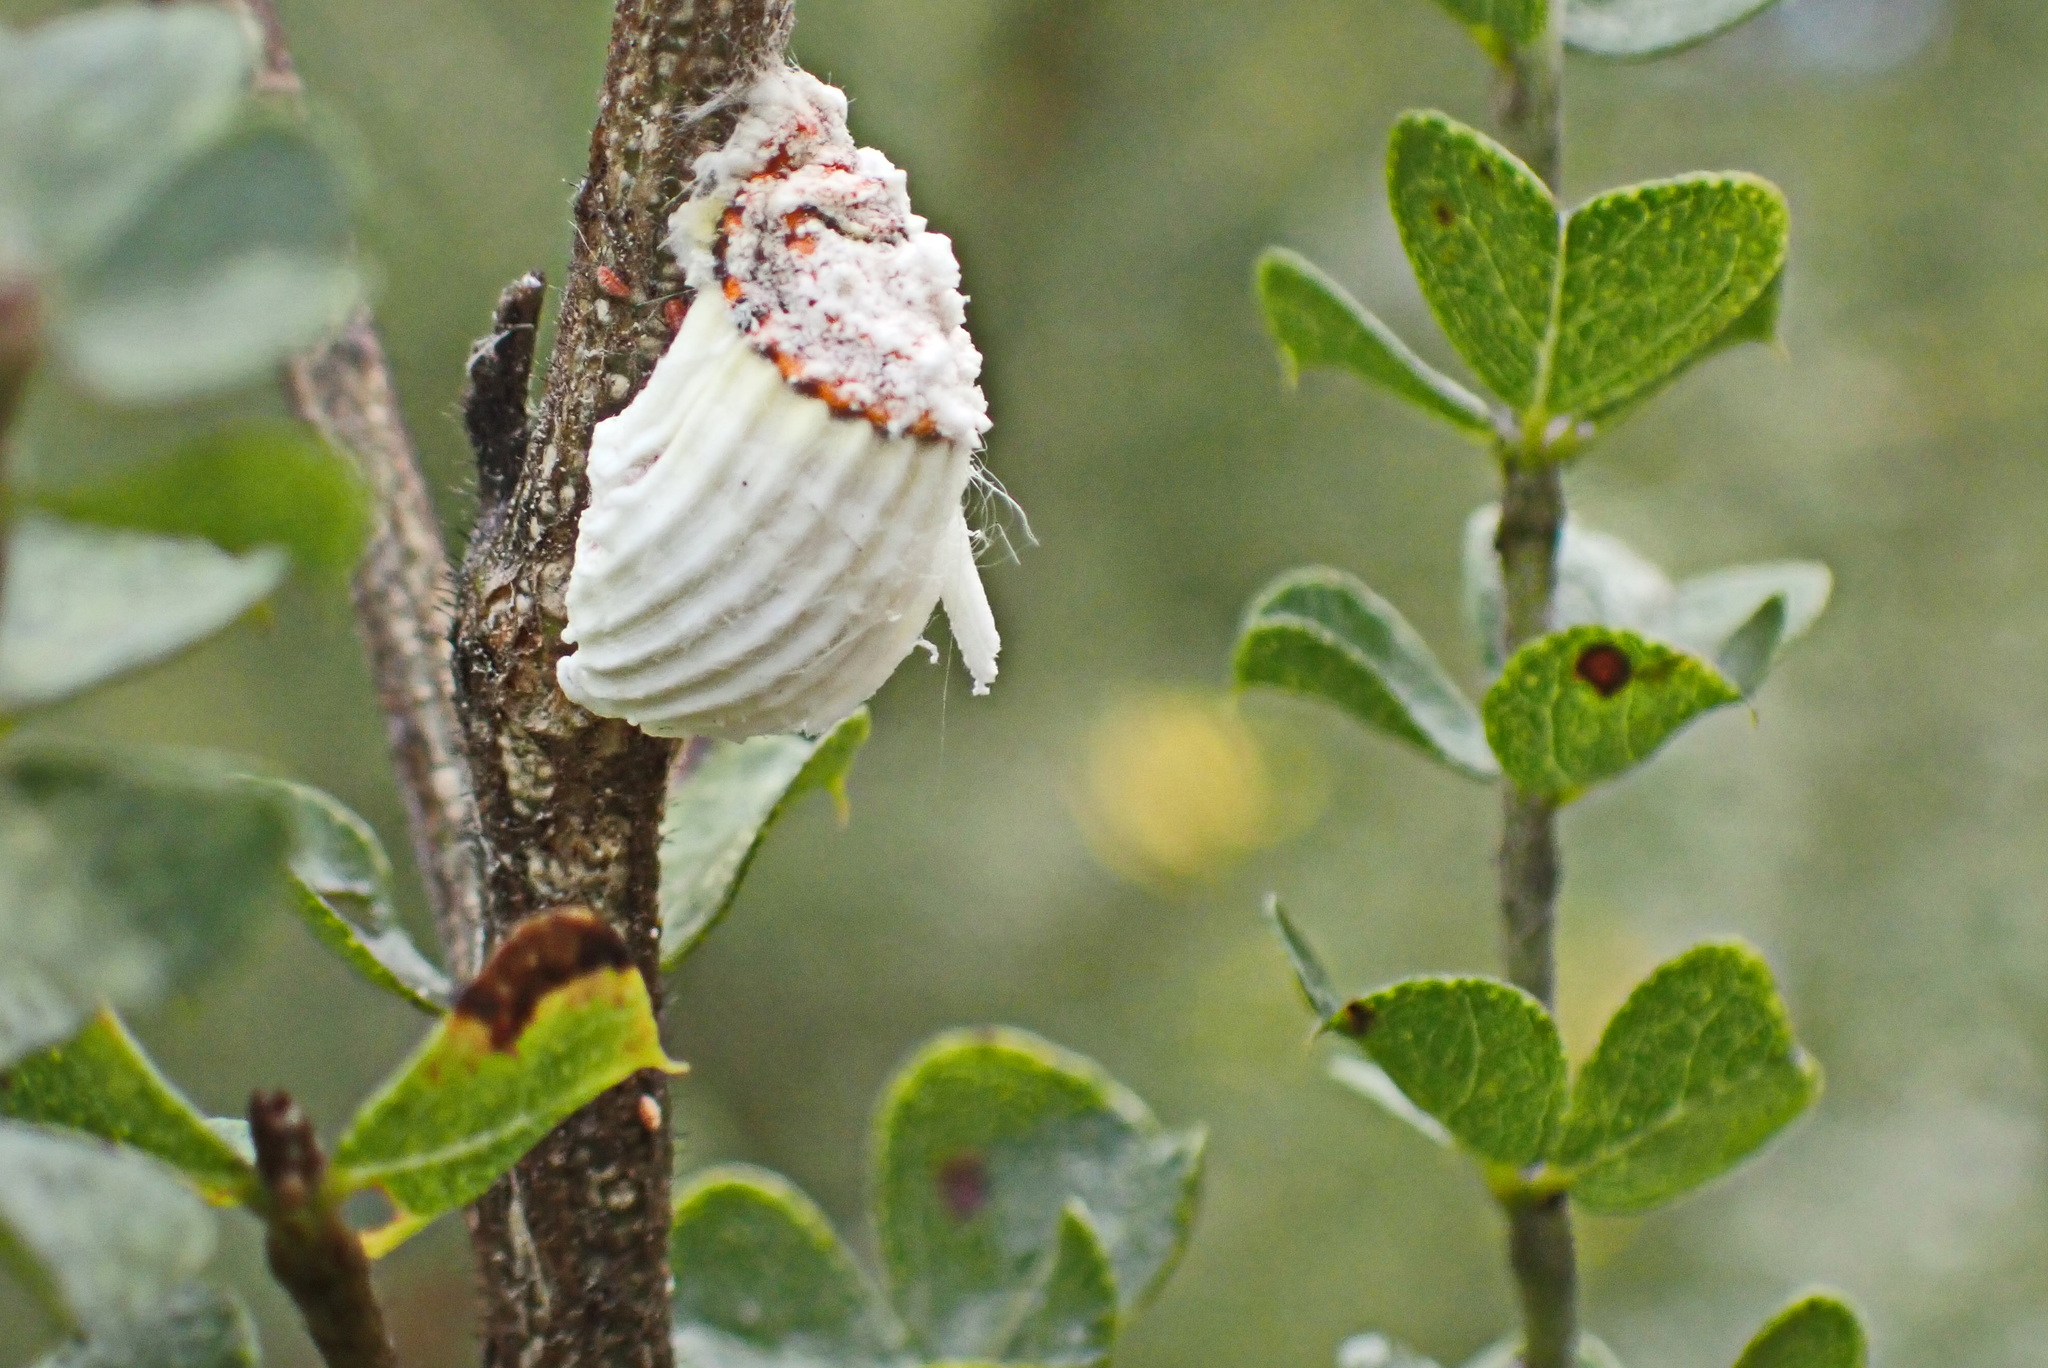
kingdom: Animalia
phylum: Arthropoda
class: Insecta
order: Hemiptera
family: Margarodidae
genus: Icerya
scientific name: Icerya purchasi
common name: Cottony cushion scale
